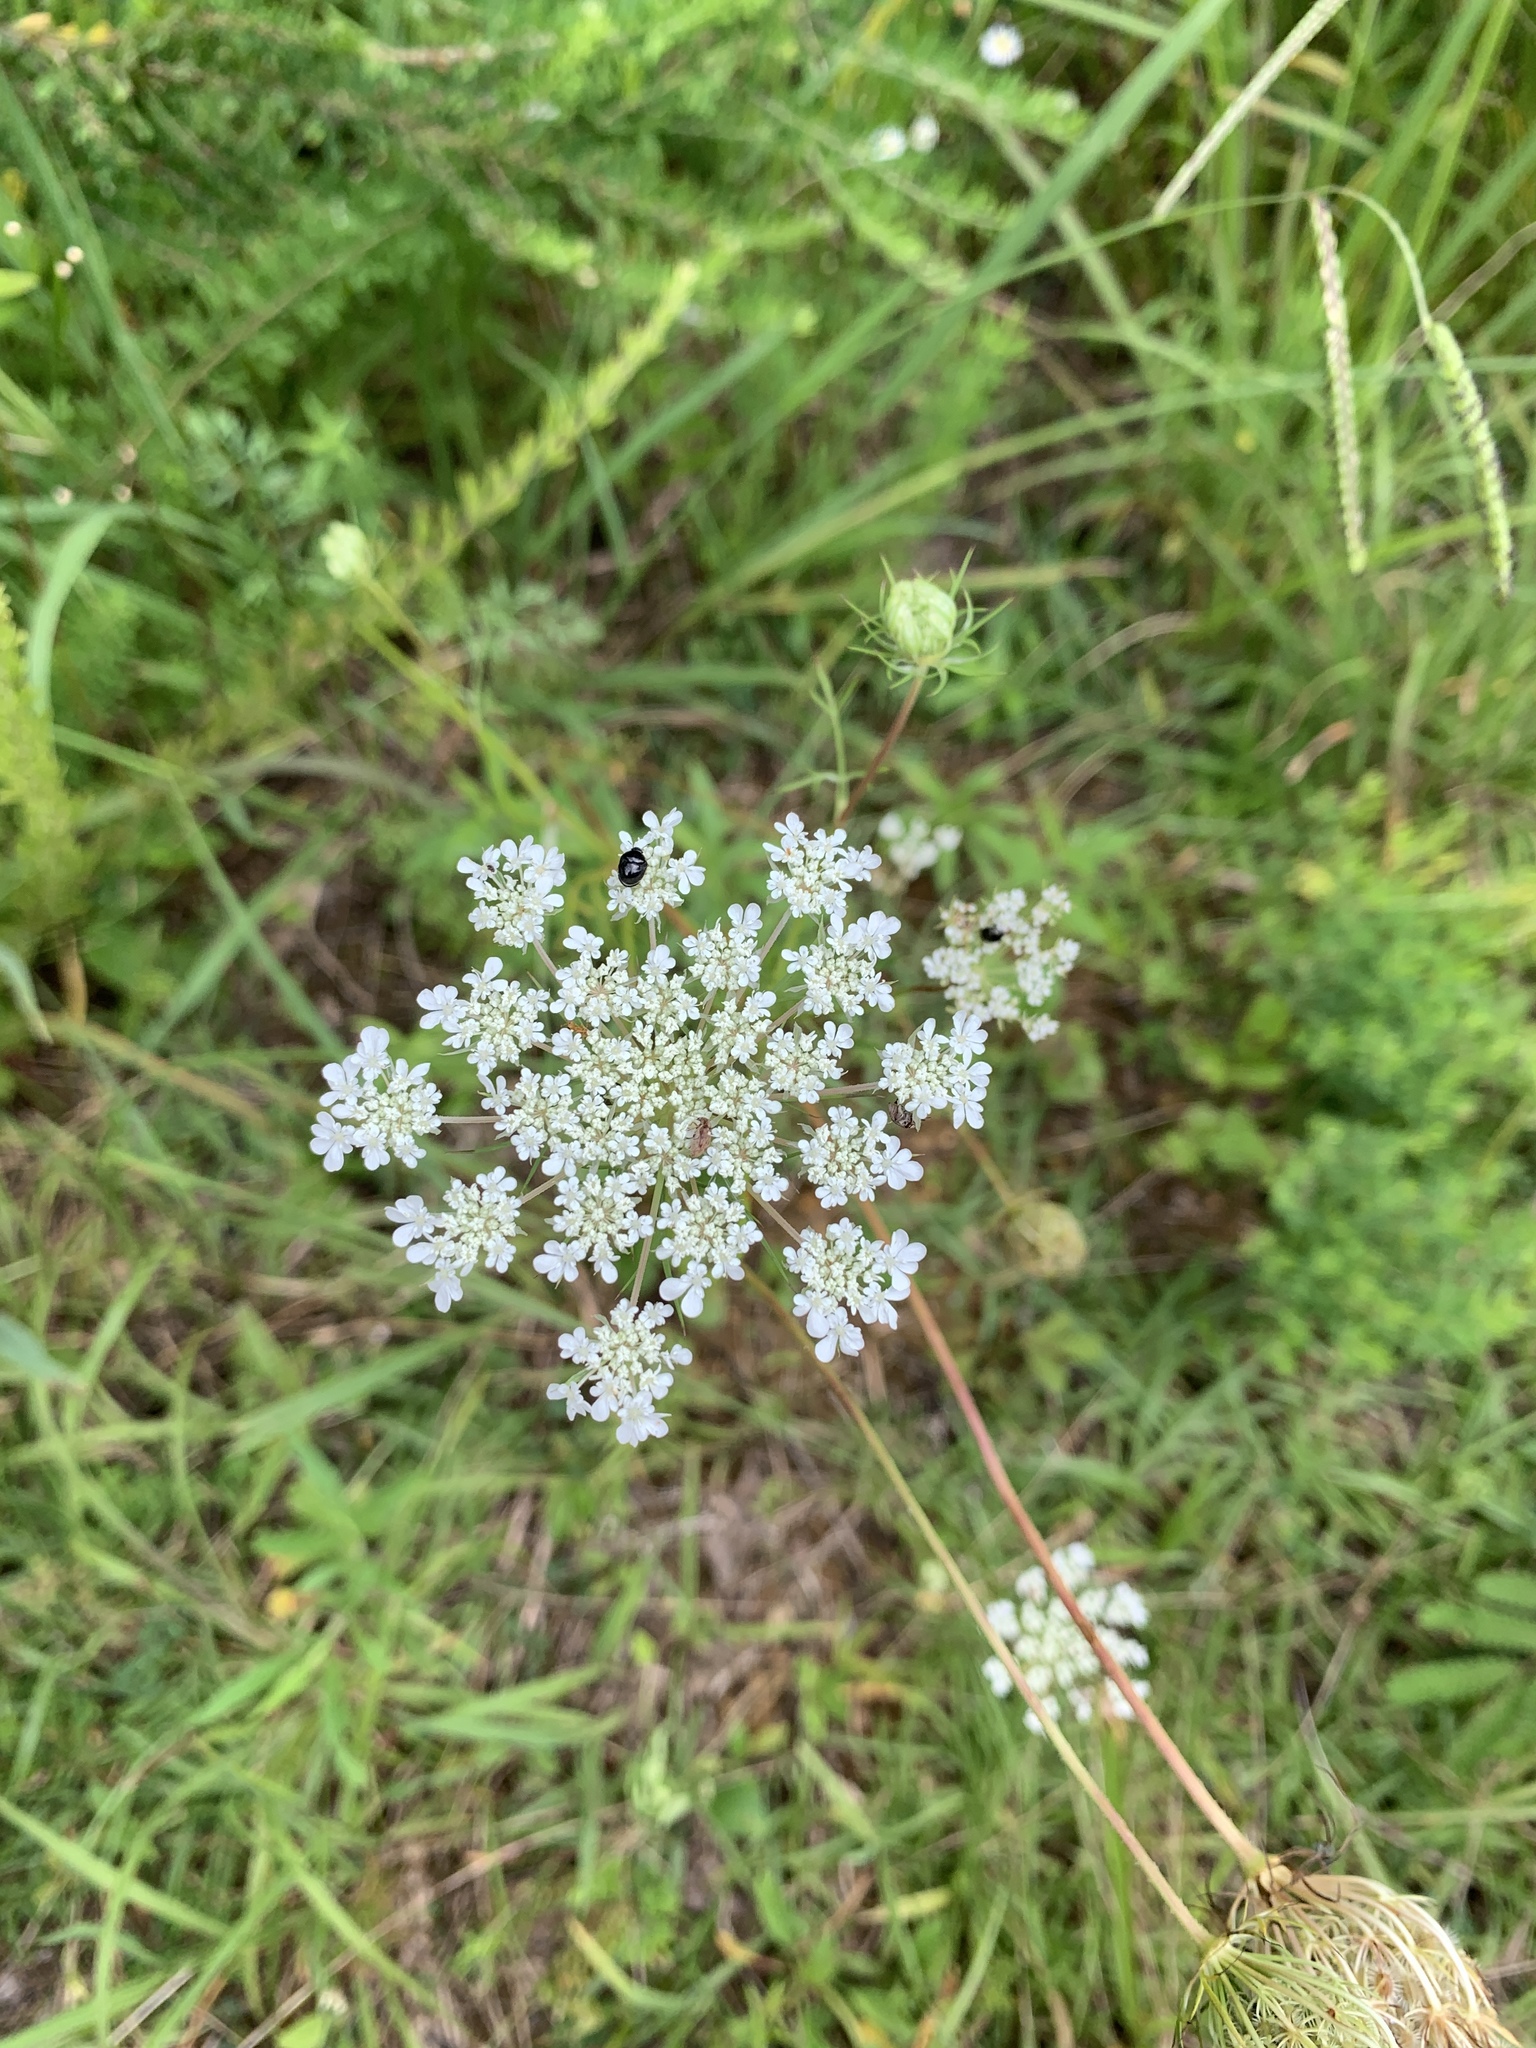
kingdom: Plantae
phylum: Tracheophyta
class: Magnoliopsida
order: Apiales
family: Apiaceae
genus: Daucus
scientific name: Daucus carota
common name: Wild carrot
